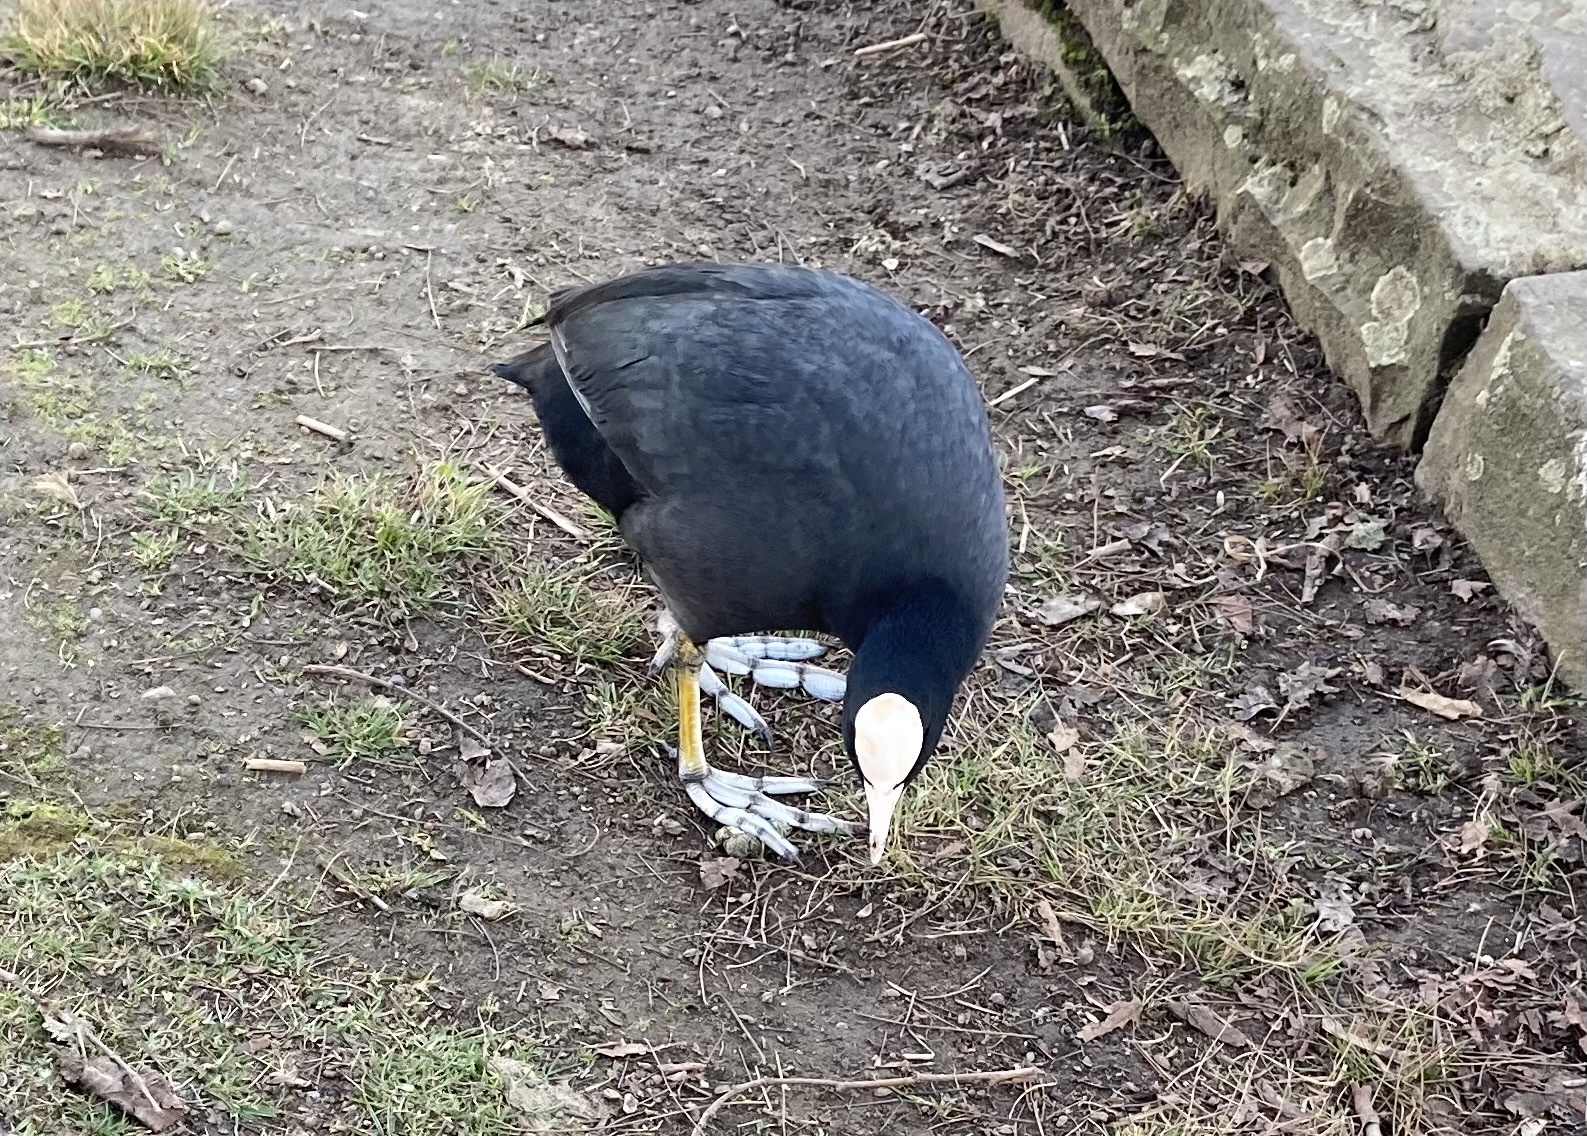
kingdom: Animalia
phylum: Chordata
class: Aves
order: Gruiformes
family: Rallidae
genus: Fulica
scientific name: Fulica atra
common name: Eurasian coot
